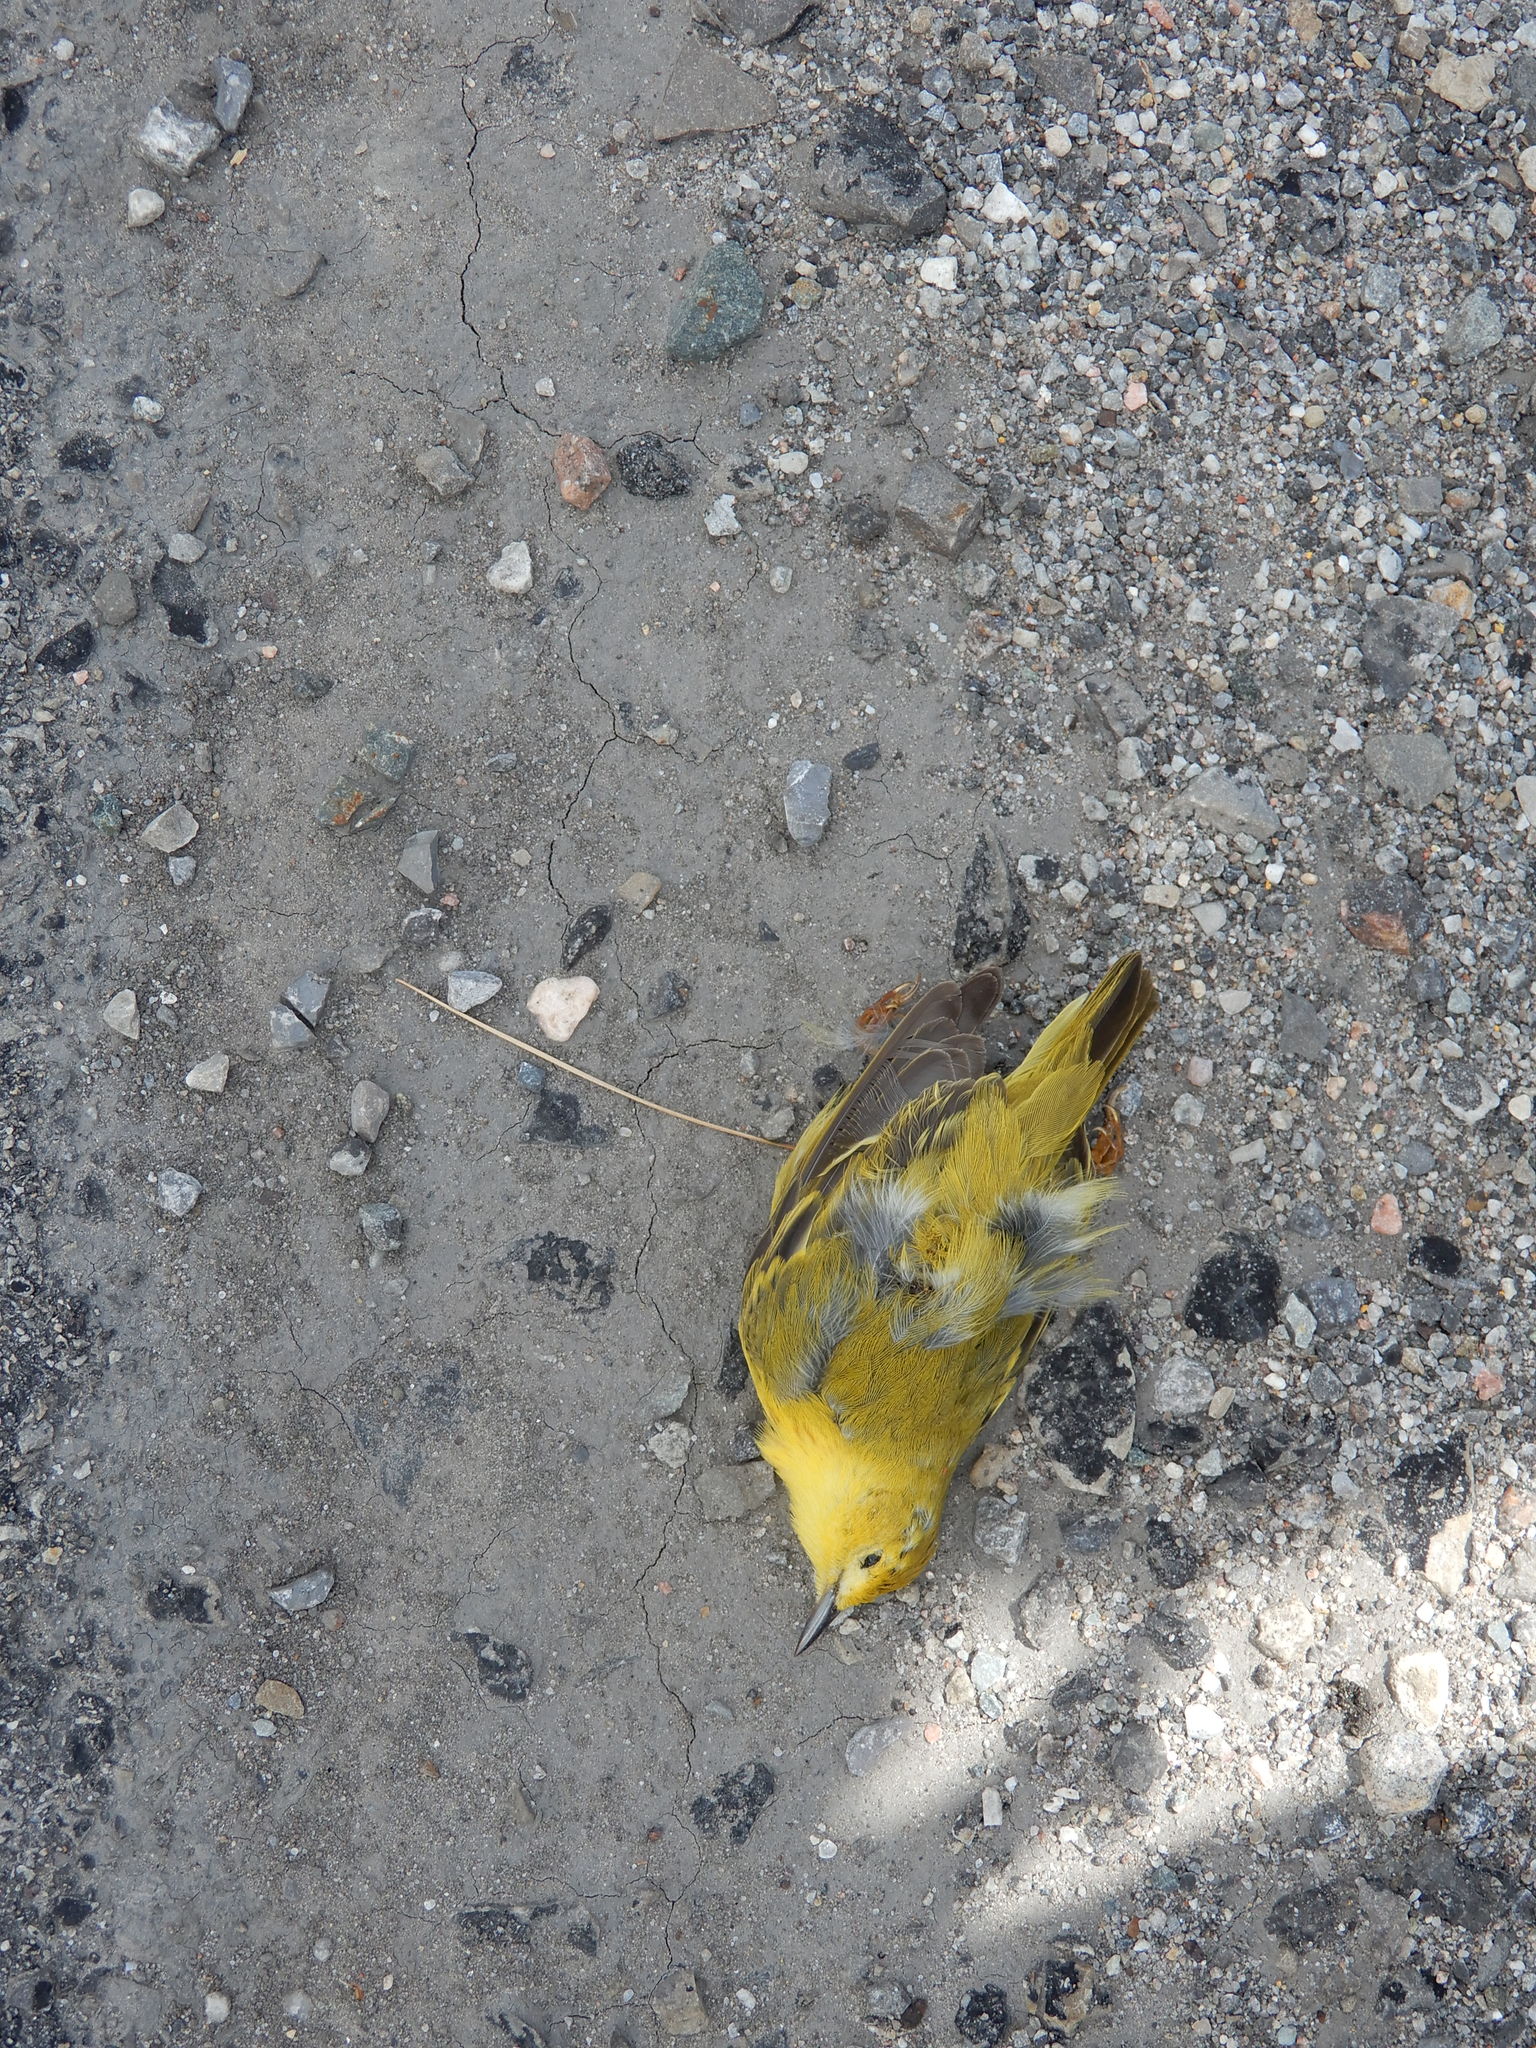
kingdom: Animalia
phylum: Chordata
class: Aves
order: Passeriformes
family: Parulidae
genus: Setophaga
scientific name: Setophaga petechia
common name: Yellow warbler
